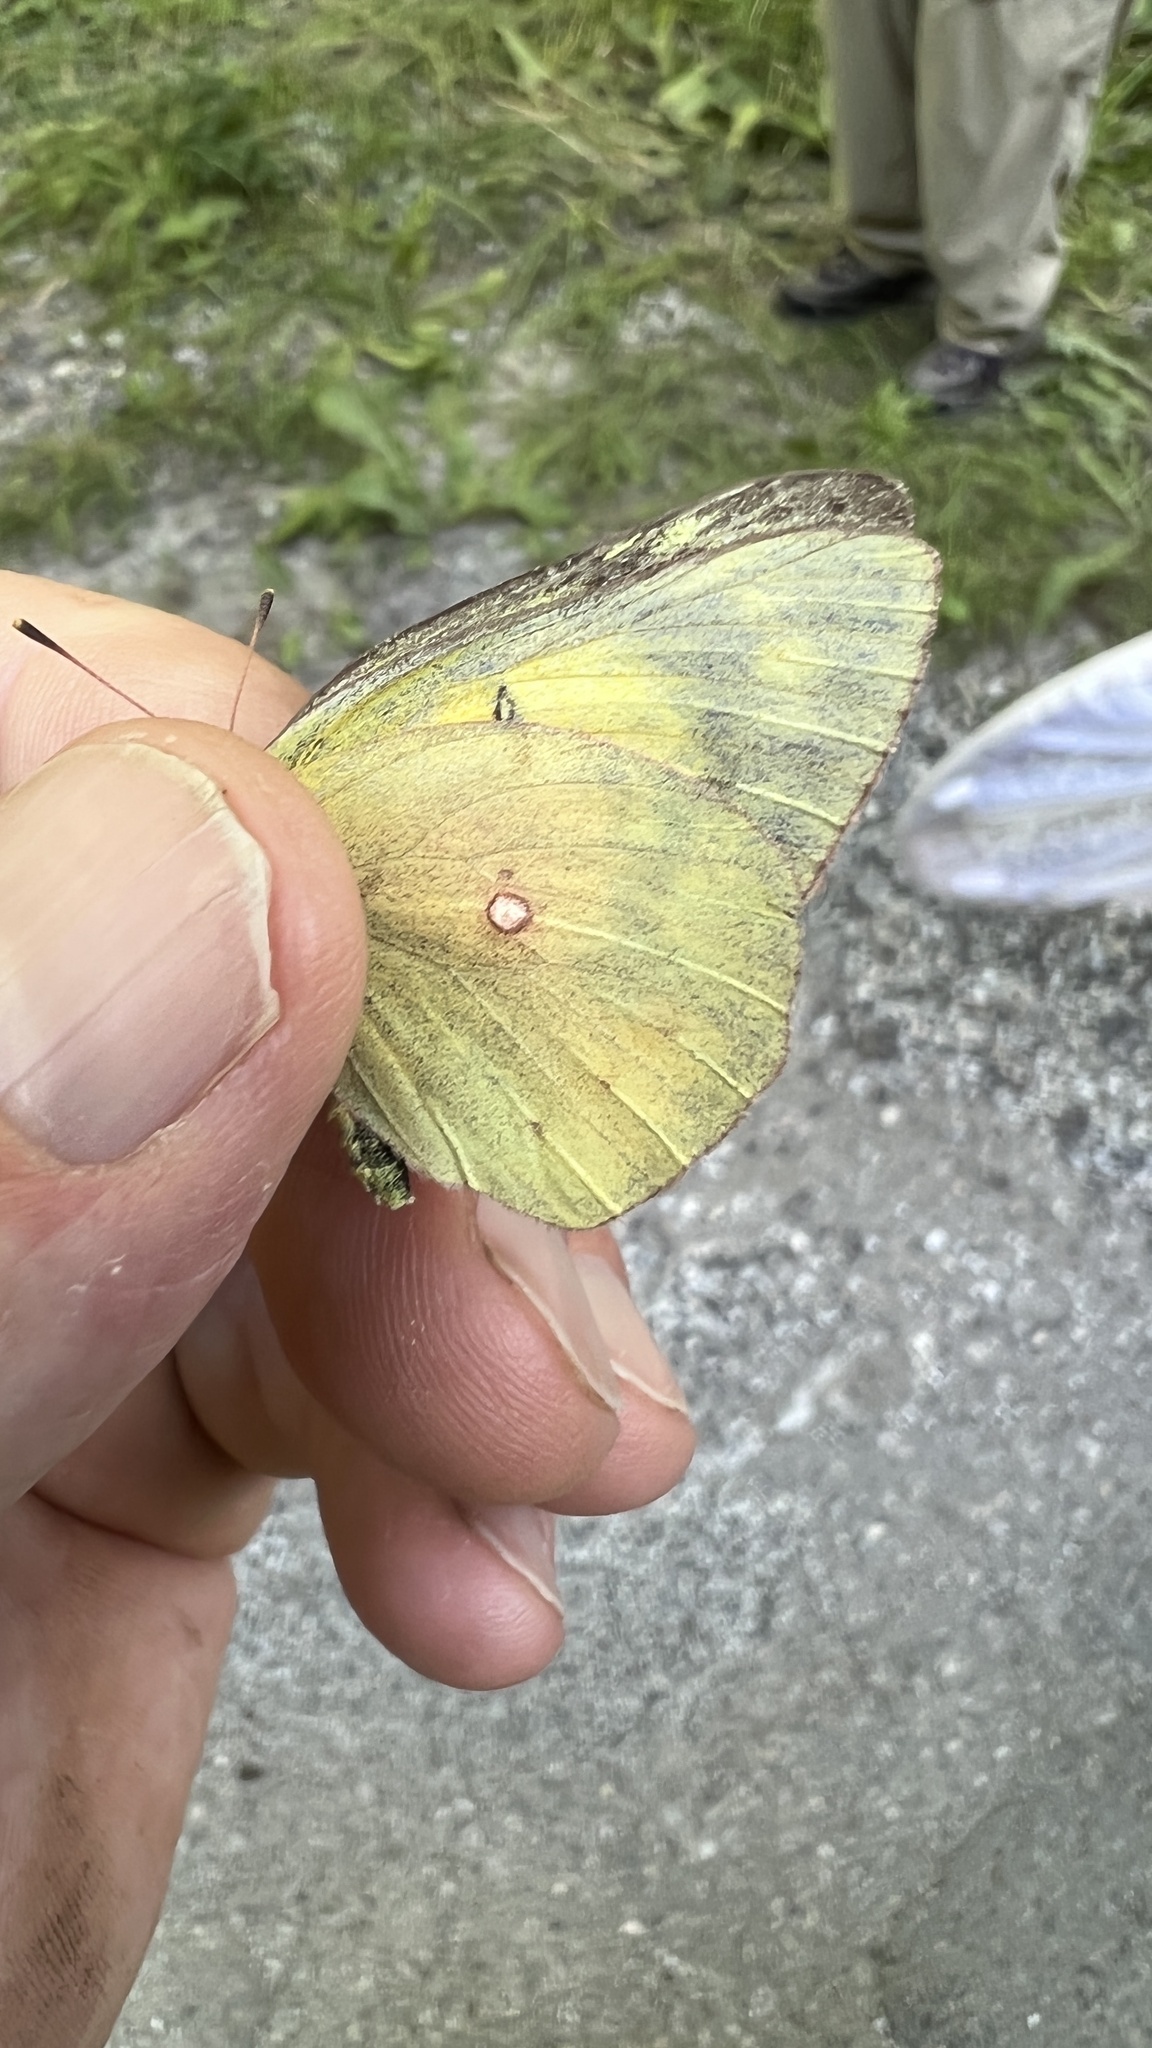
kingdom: Animalia
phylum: Arthropoda
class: Insecta
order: Lepidoptera
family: Pieridae
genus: Colias
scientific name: Colias philodice
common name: Clouded sulphur
